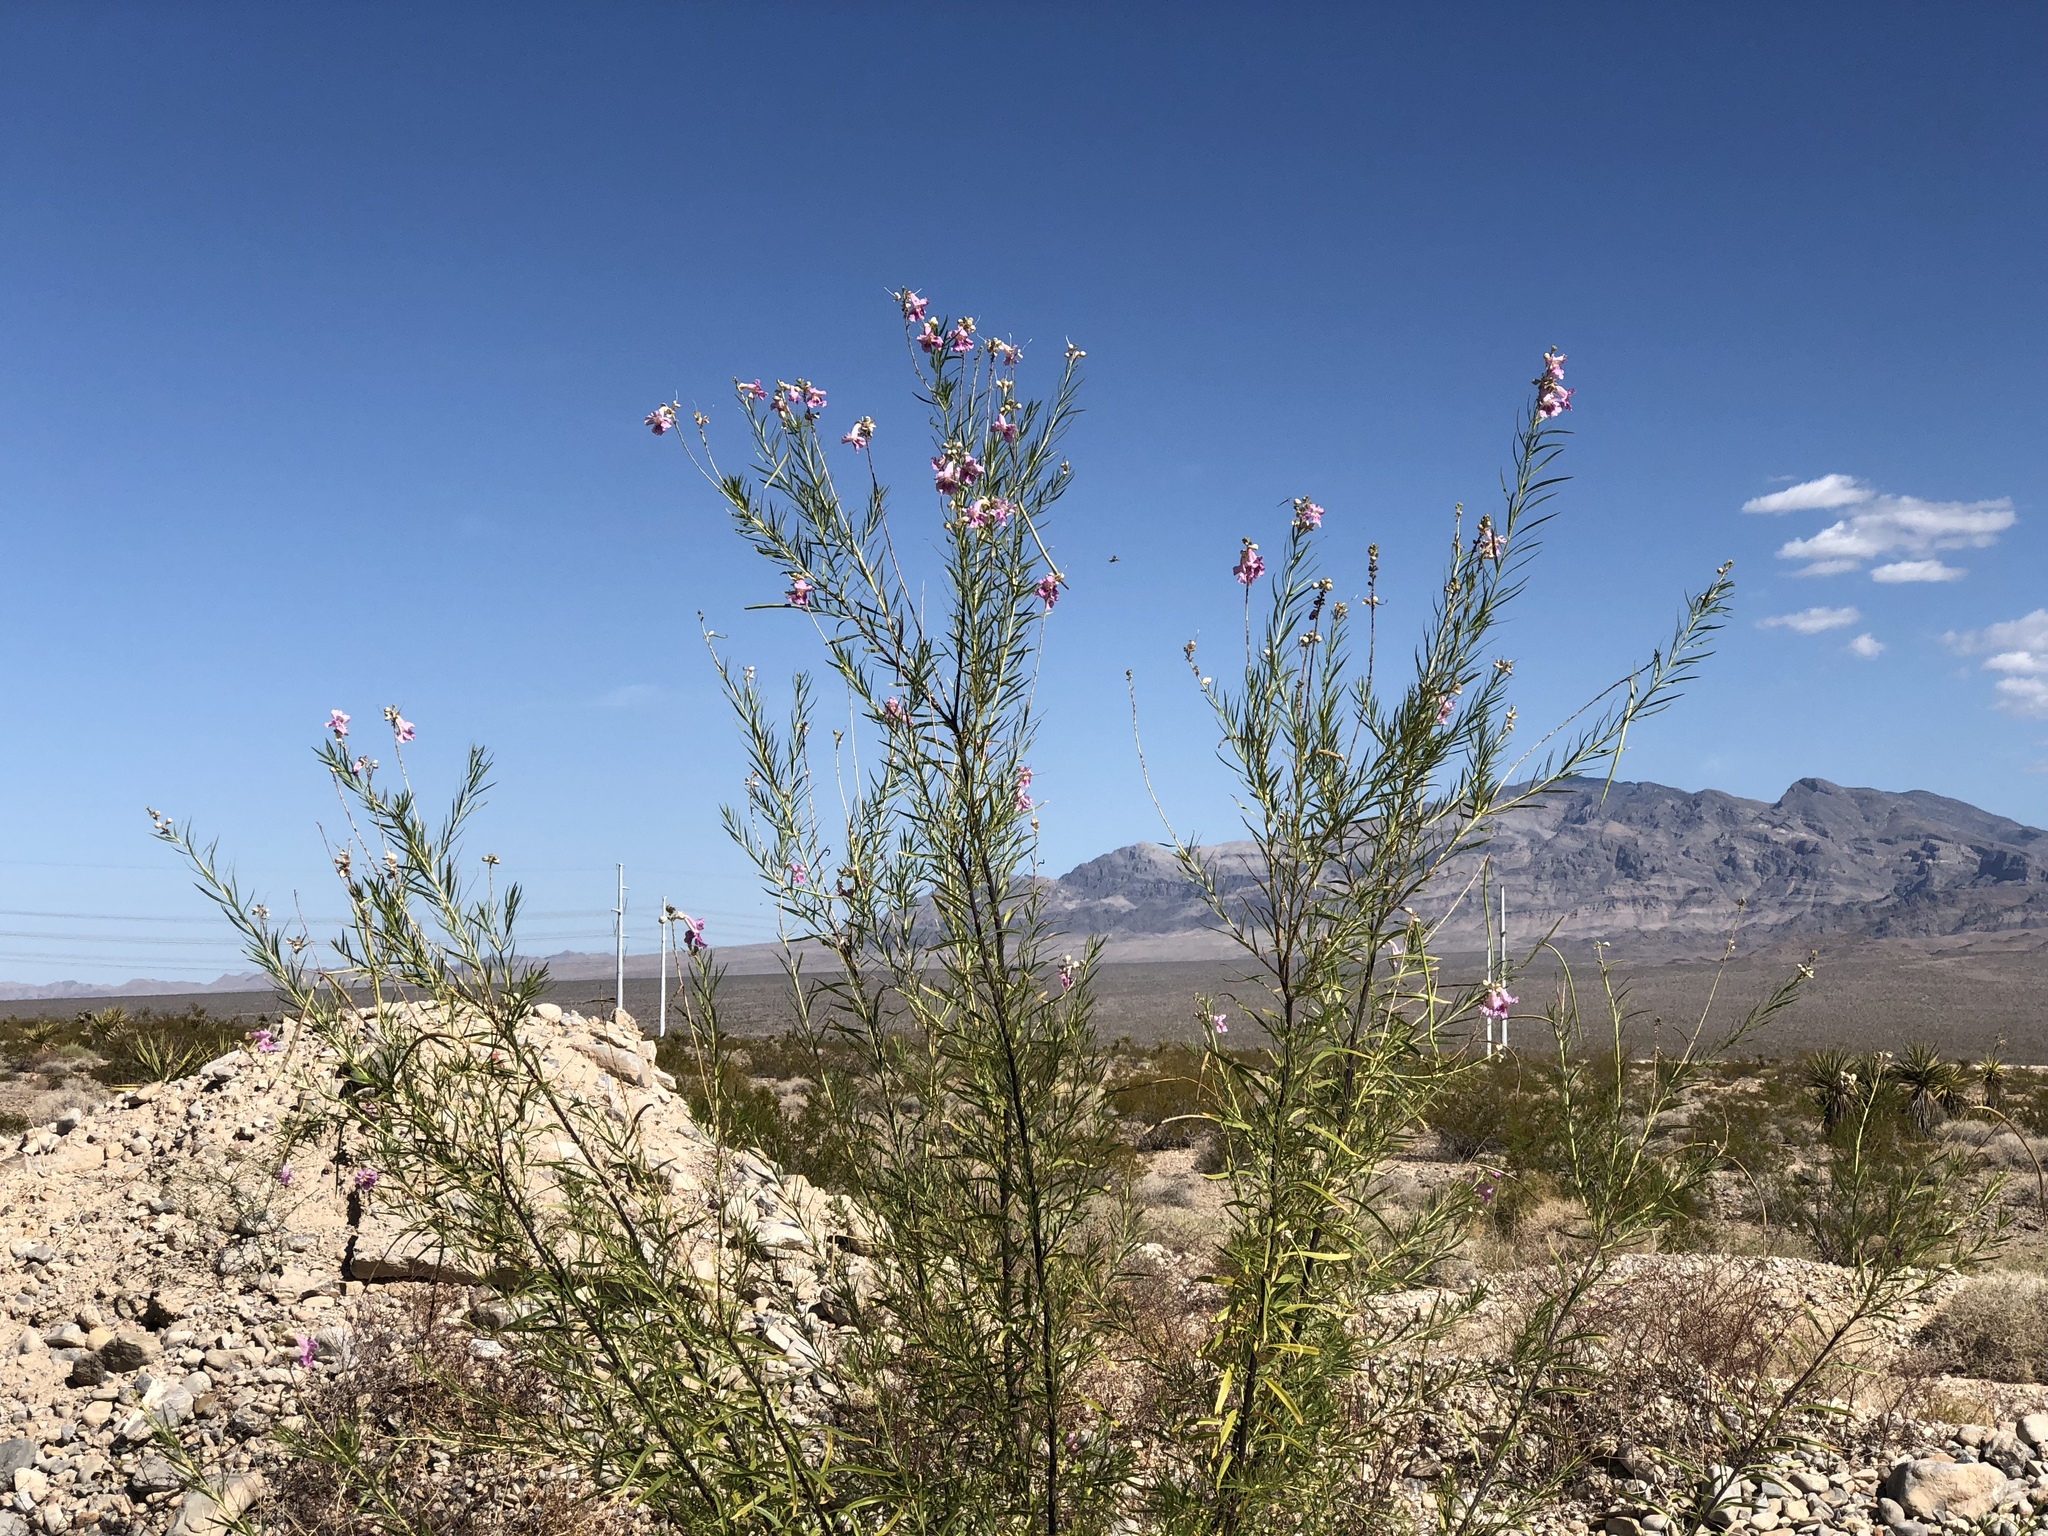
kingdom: Plantae
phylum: Tracheophyta
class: Magnoliopsida
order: Lamiales
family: Bignoniaceae
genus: Chilopsis
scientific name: Chilopsis linearis
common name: Desert-willow
